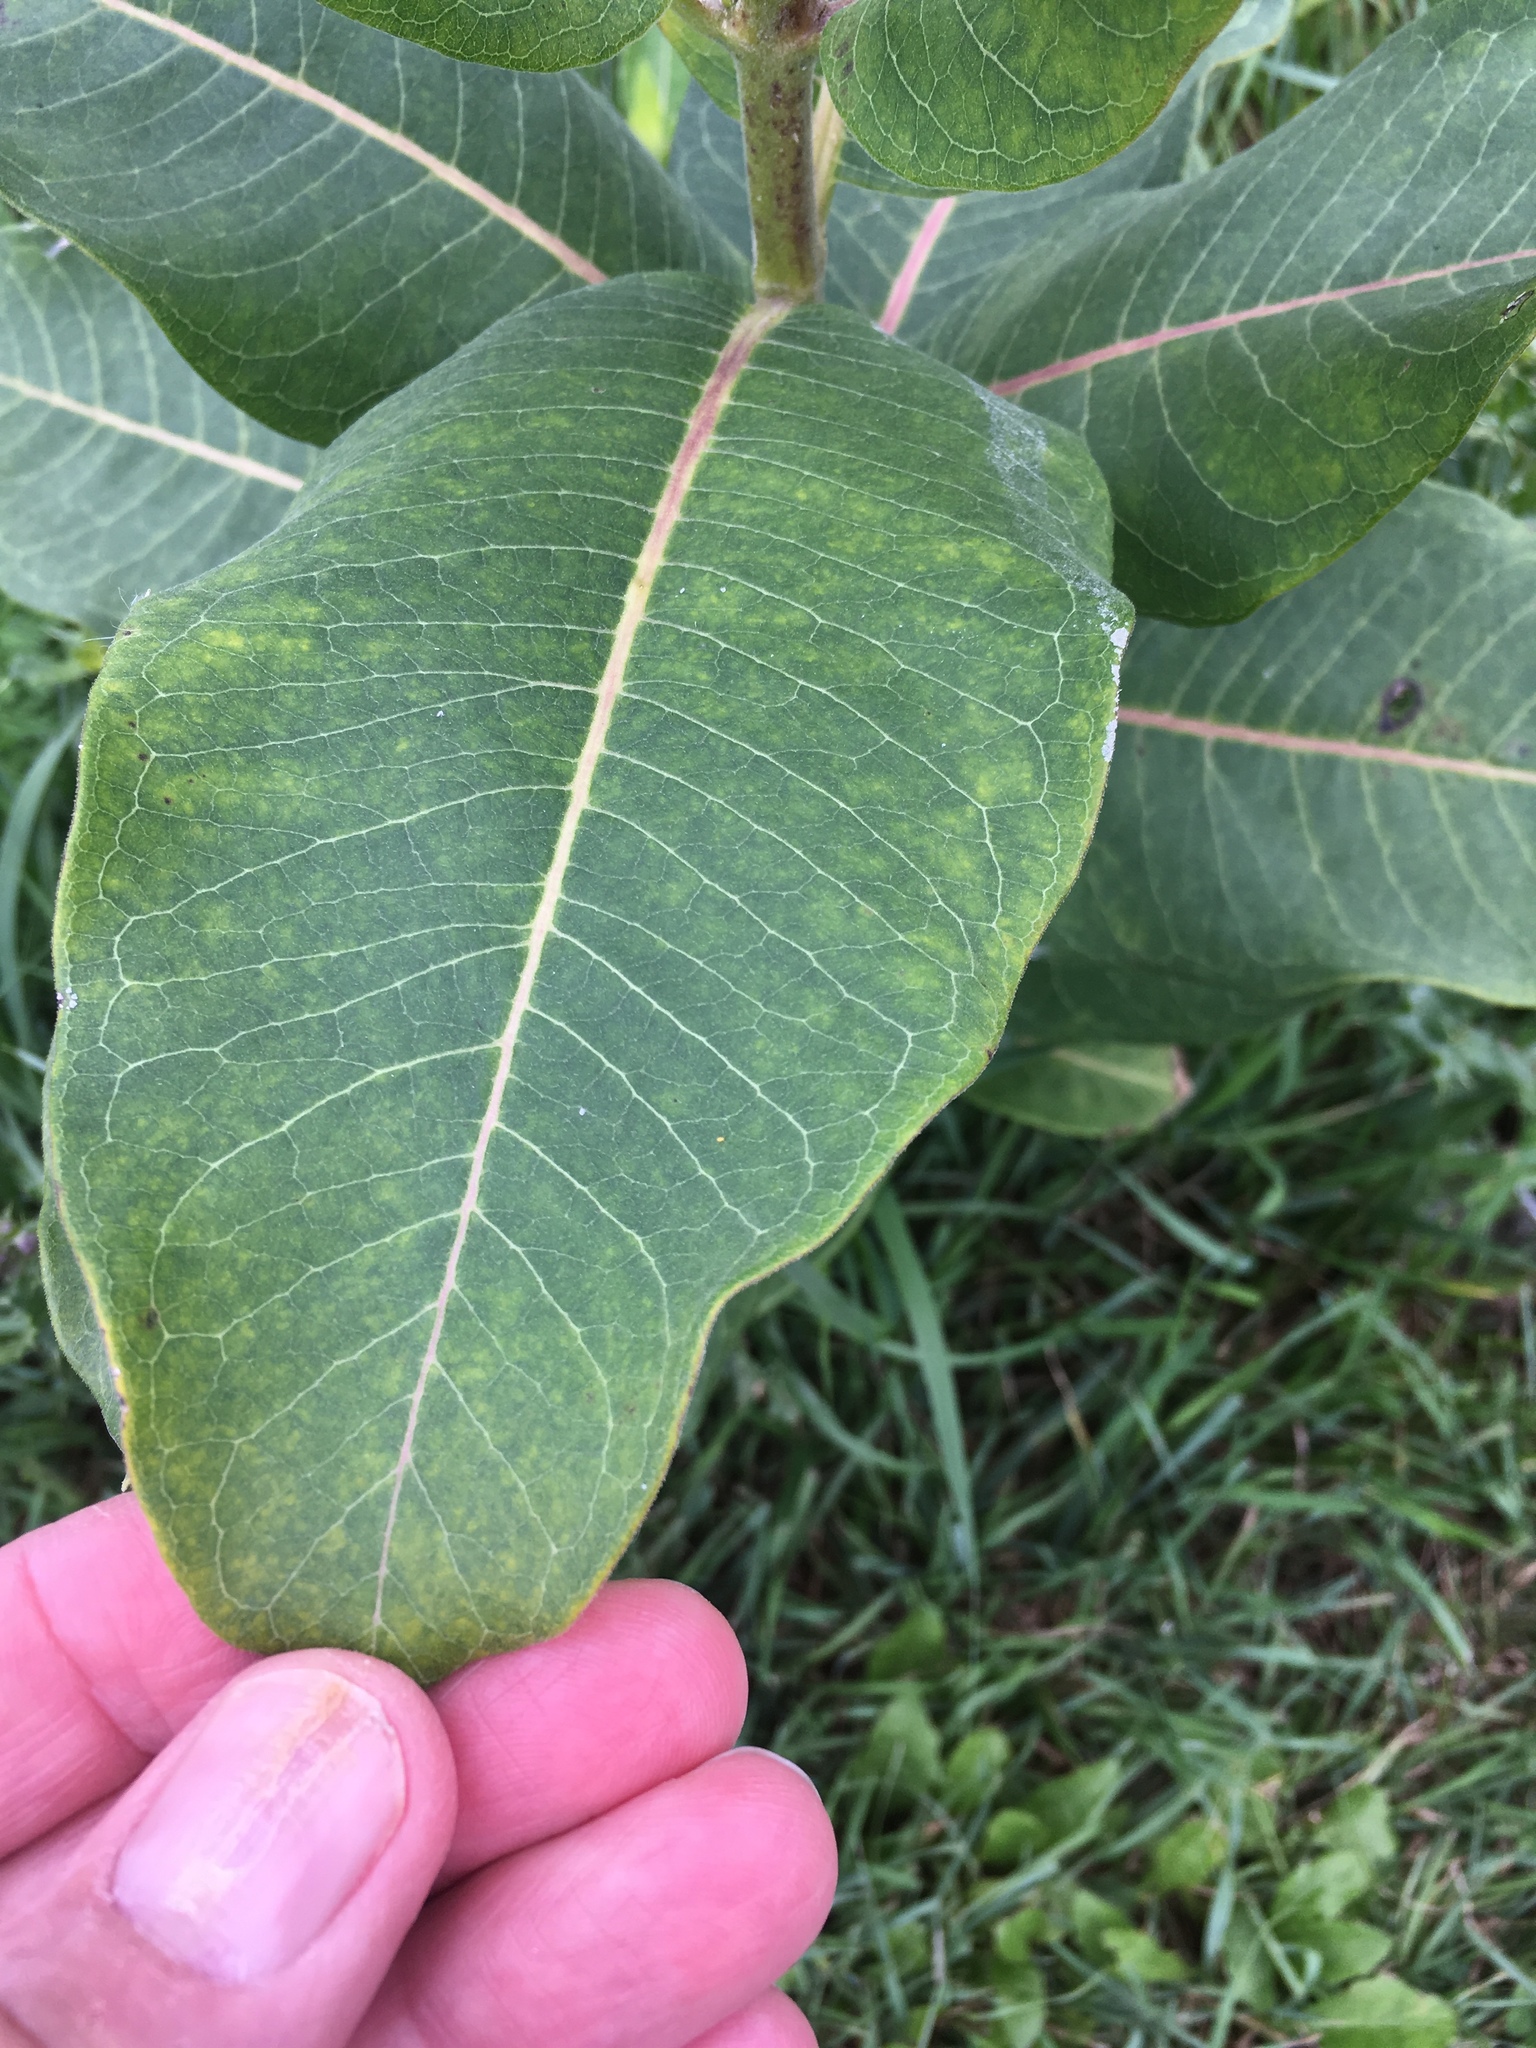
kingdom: Plantae
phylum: Tracheophyta
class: Magnoliopsida
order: Gentianales
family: Apocynaceae
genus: Asclepias
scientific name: Asclepias syriaca
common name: Common milkweed
